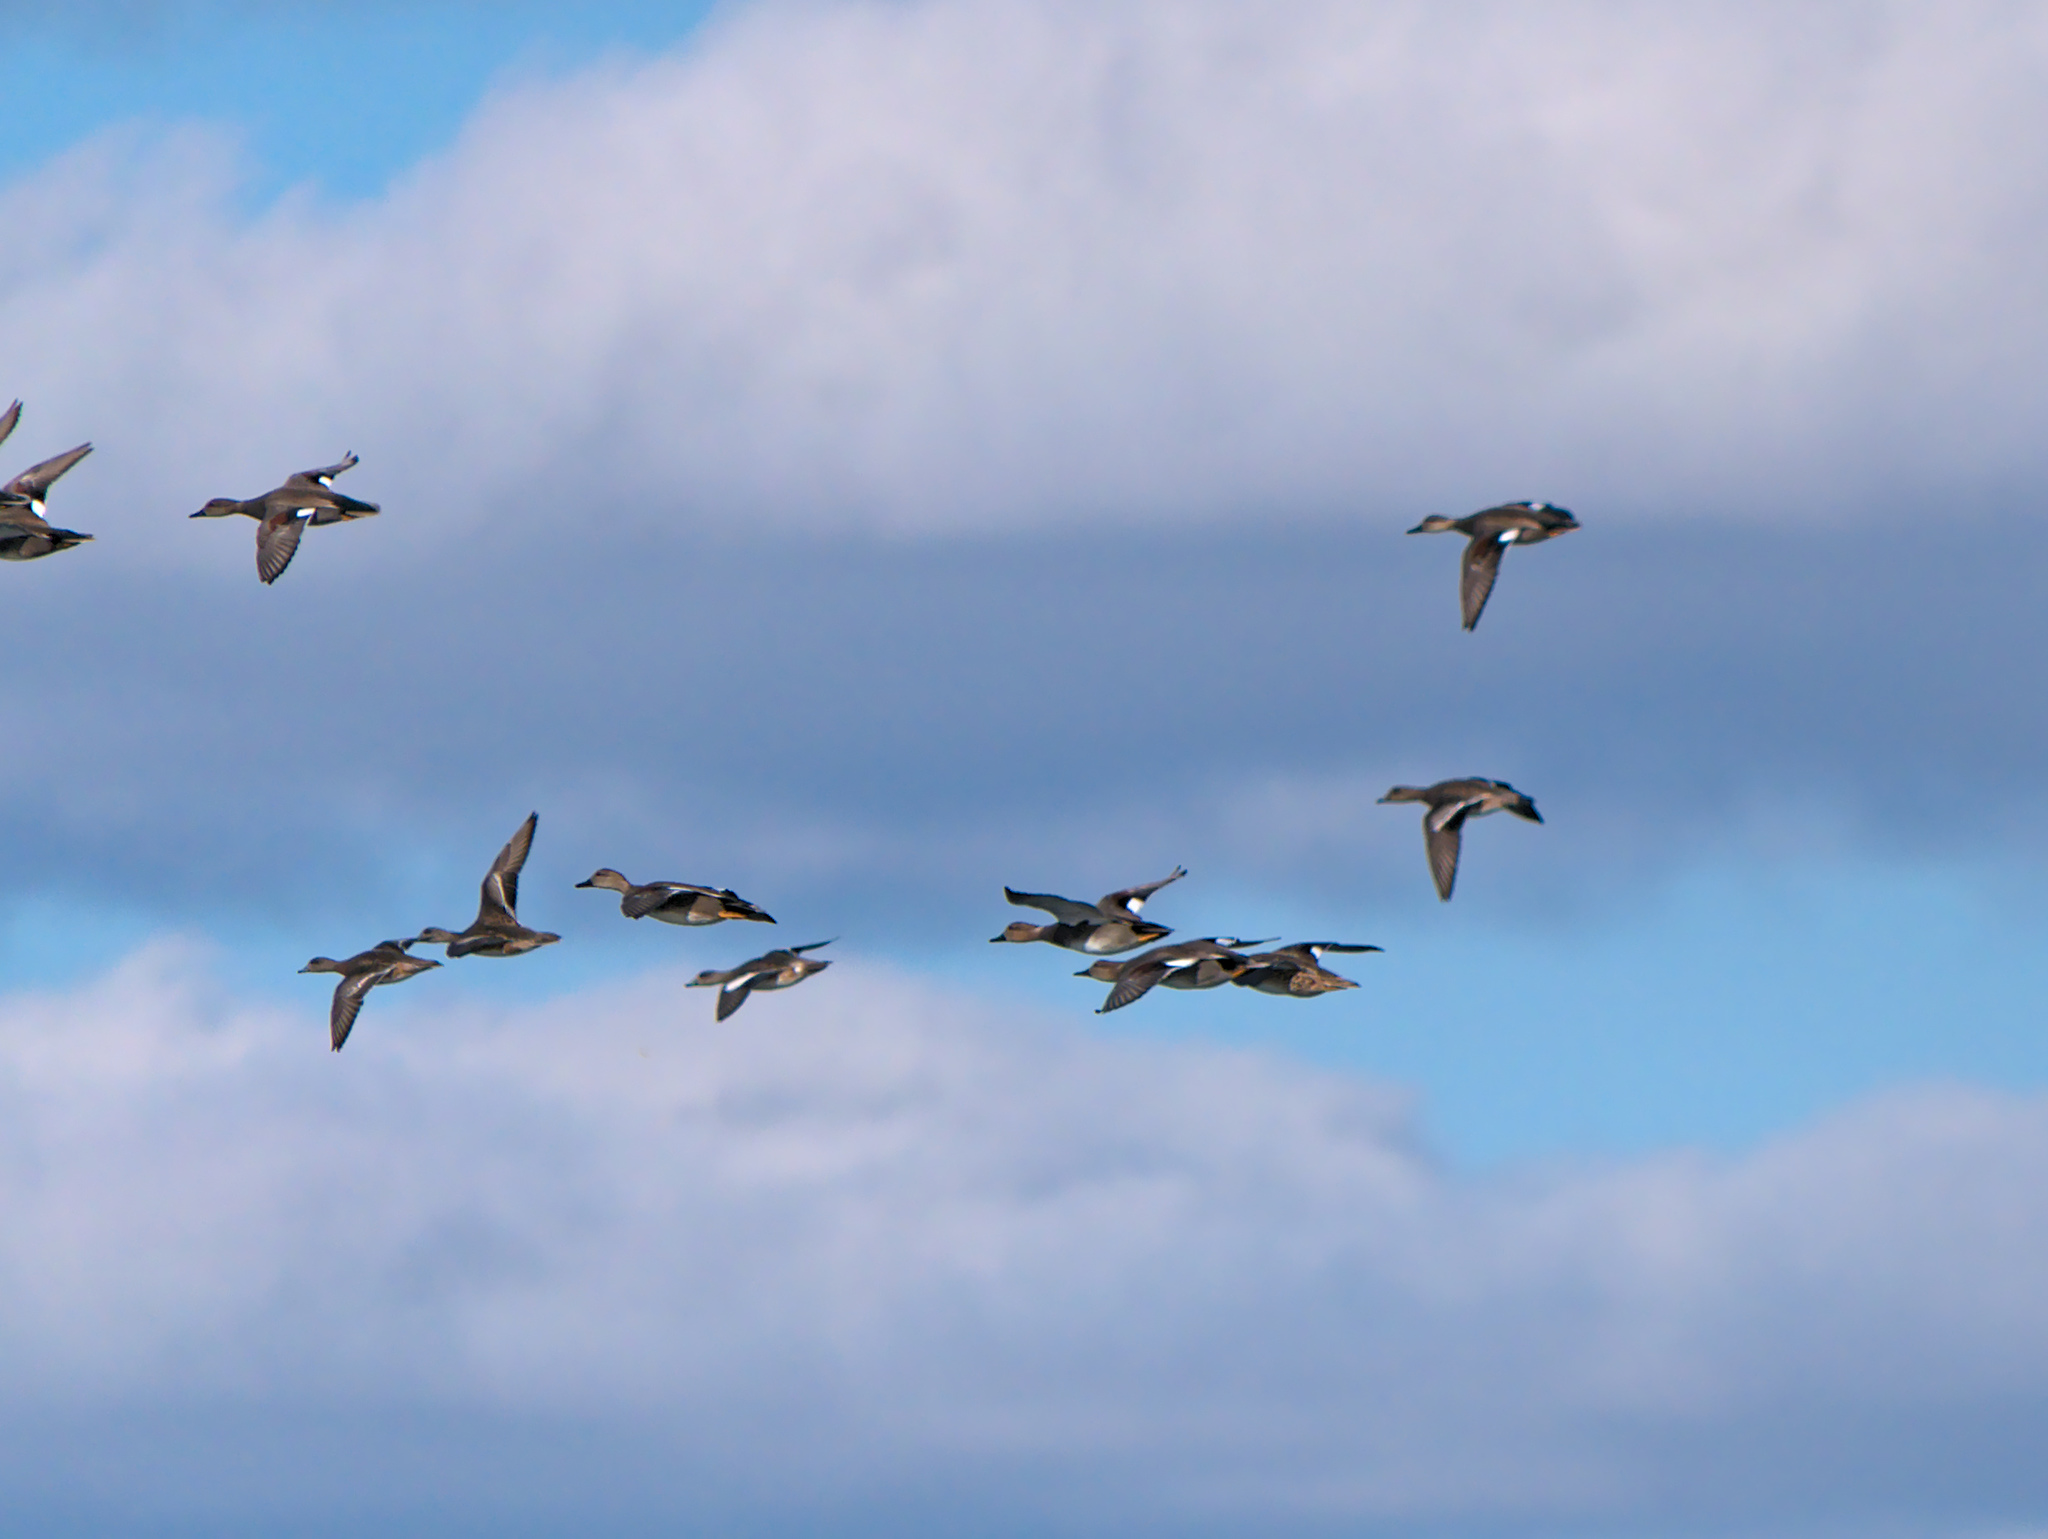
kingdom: Animalia
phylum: Chordata
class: Aves
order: Anseriformes
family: Anatidae
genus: Mareca
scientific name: Mareca strepera
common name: Gadwall
